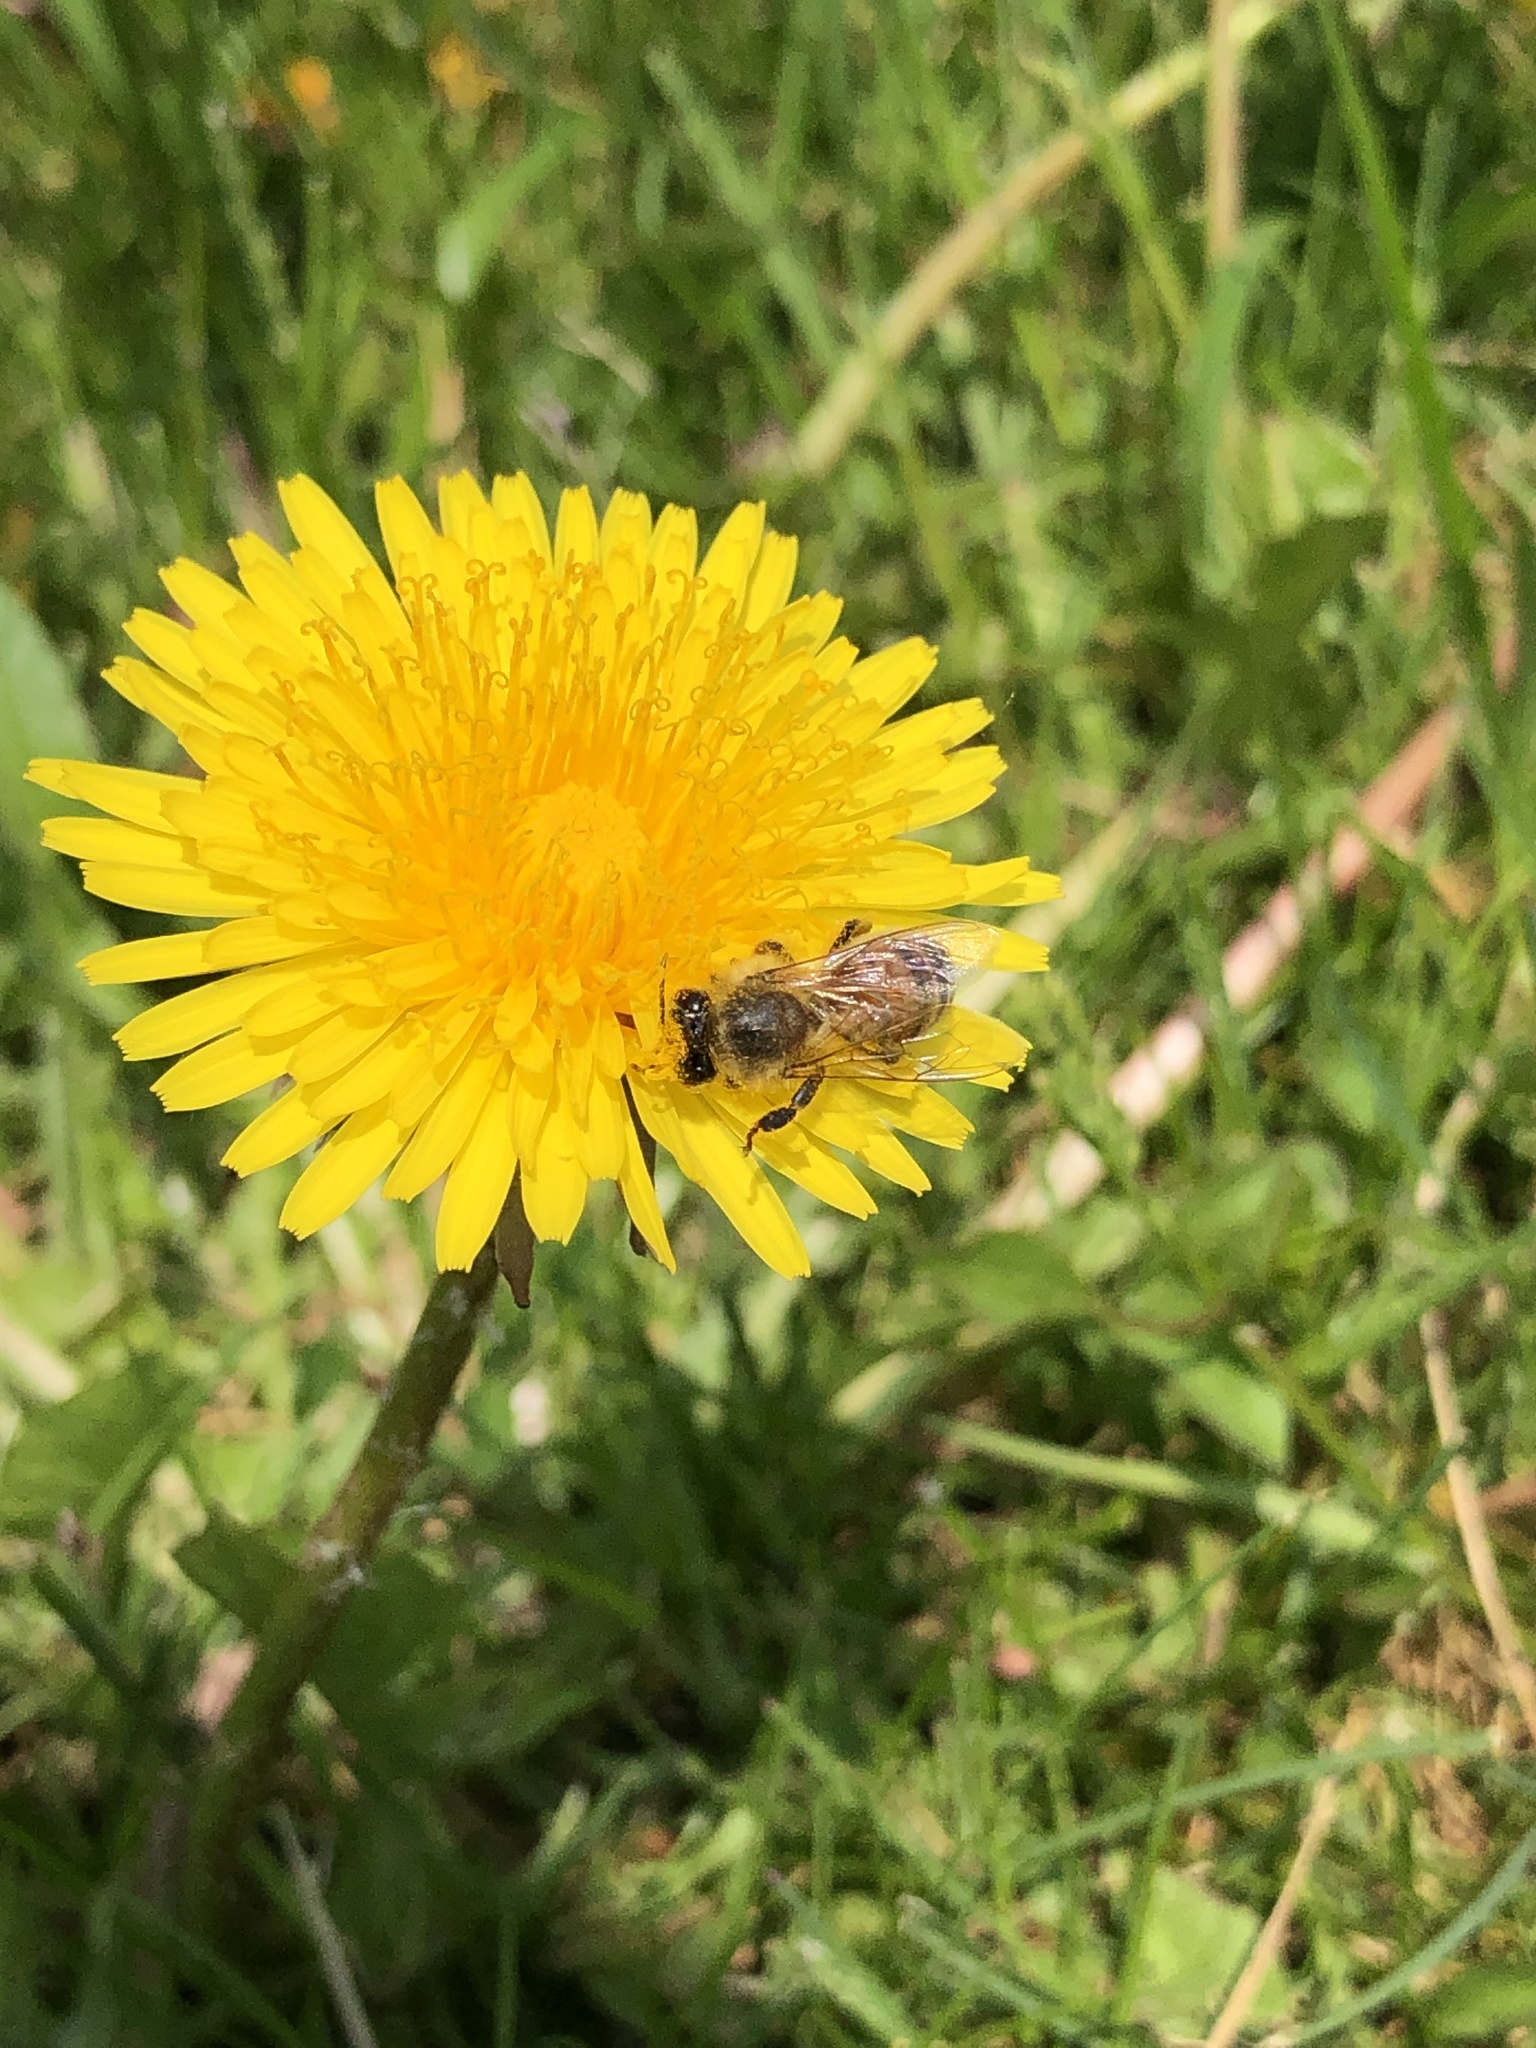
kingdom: Animalia
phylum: Arthropoda
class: Insecta
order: Hymenoptera
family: Apidae
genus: Apis
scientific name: Apis mellifera
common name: Honey bee
